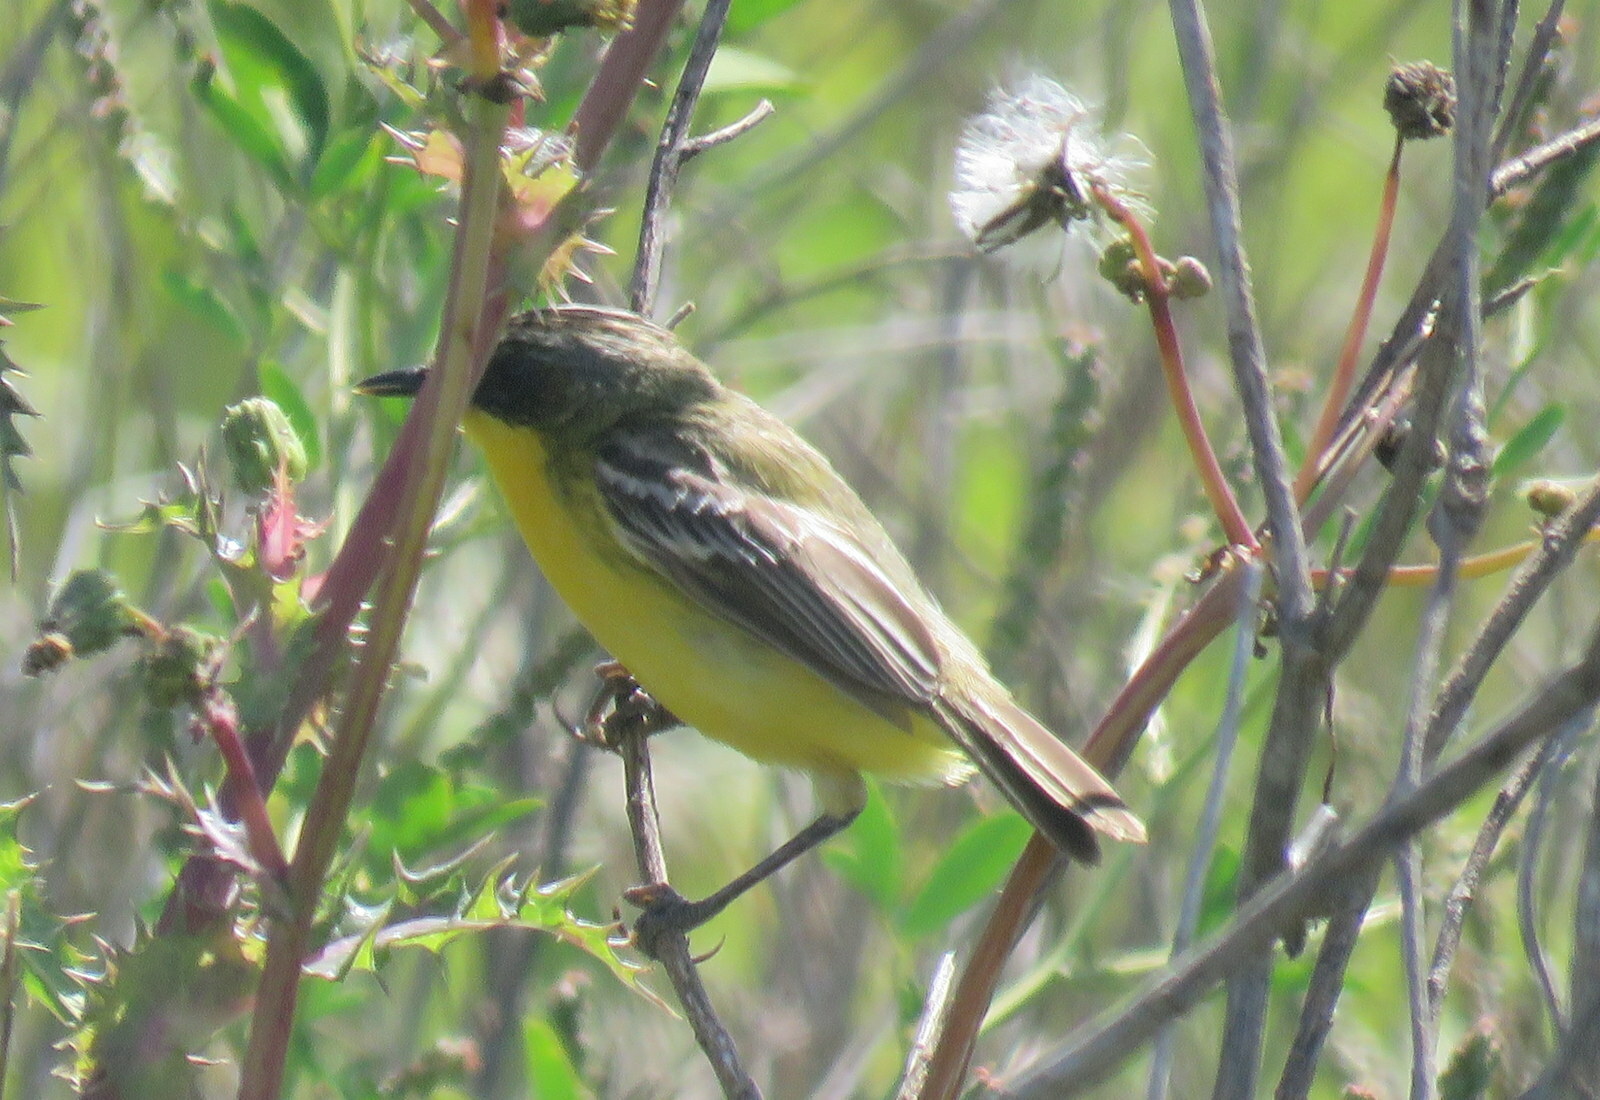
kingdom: Animalia
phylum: Chordata
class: Aves
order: Passeriformes
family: Tyrannidae
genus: Pseudocolopteryx
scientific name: Pseudocolopteryx sclateri
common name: Crested doradito
